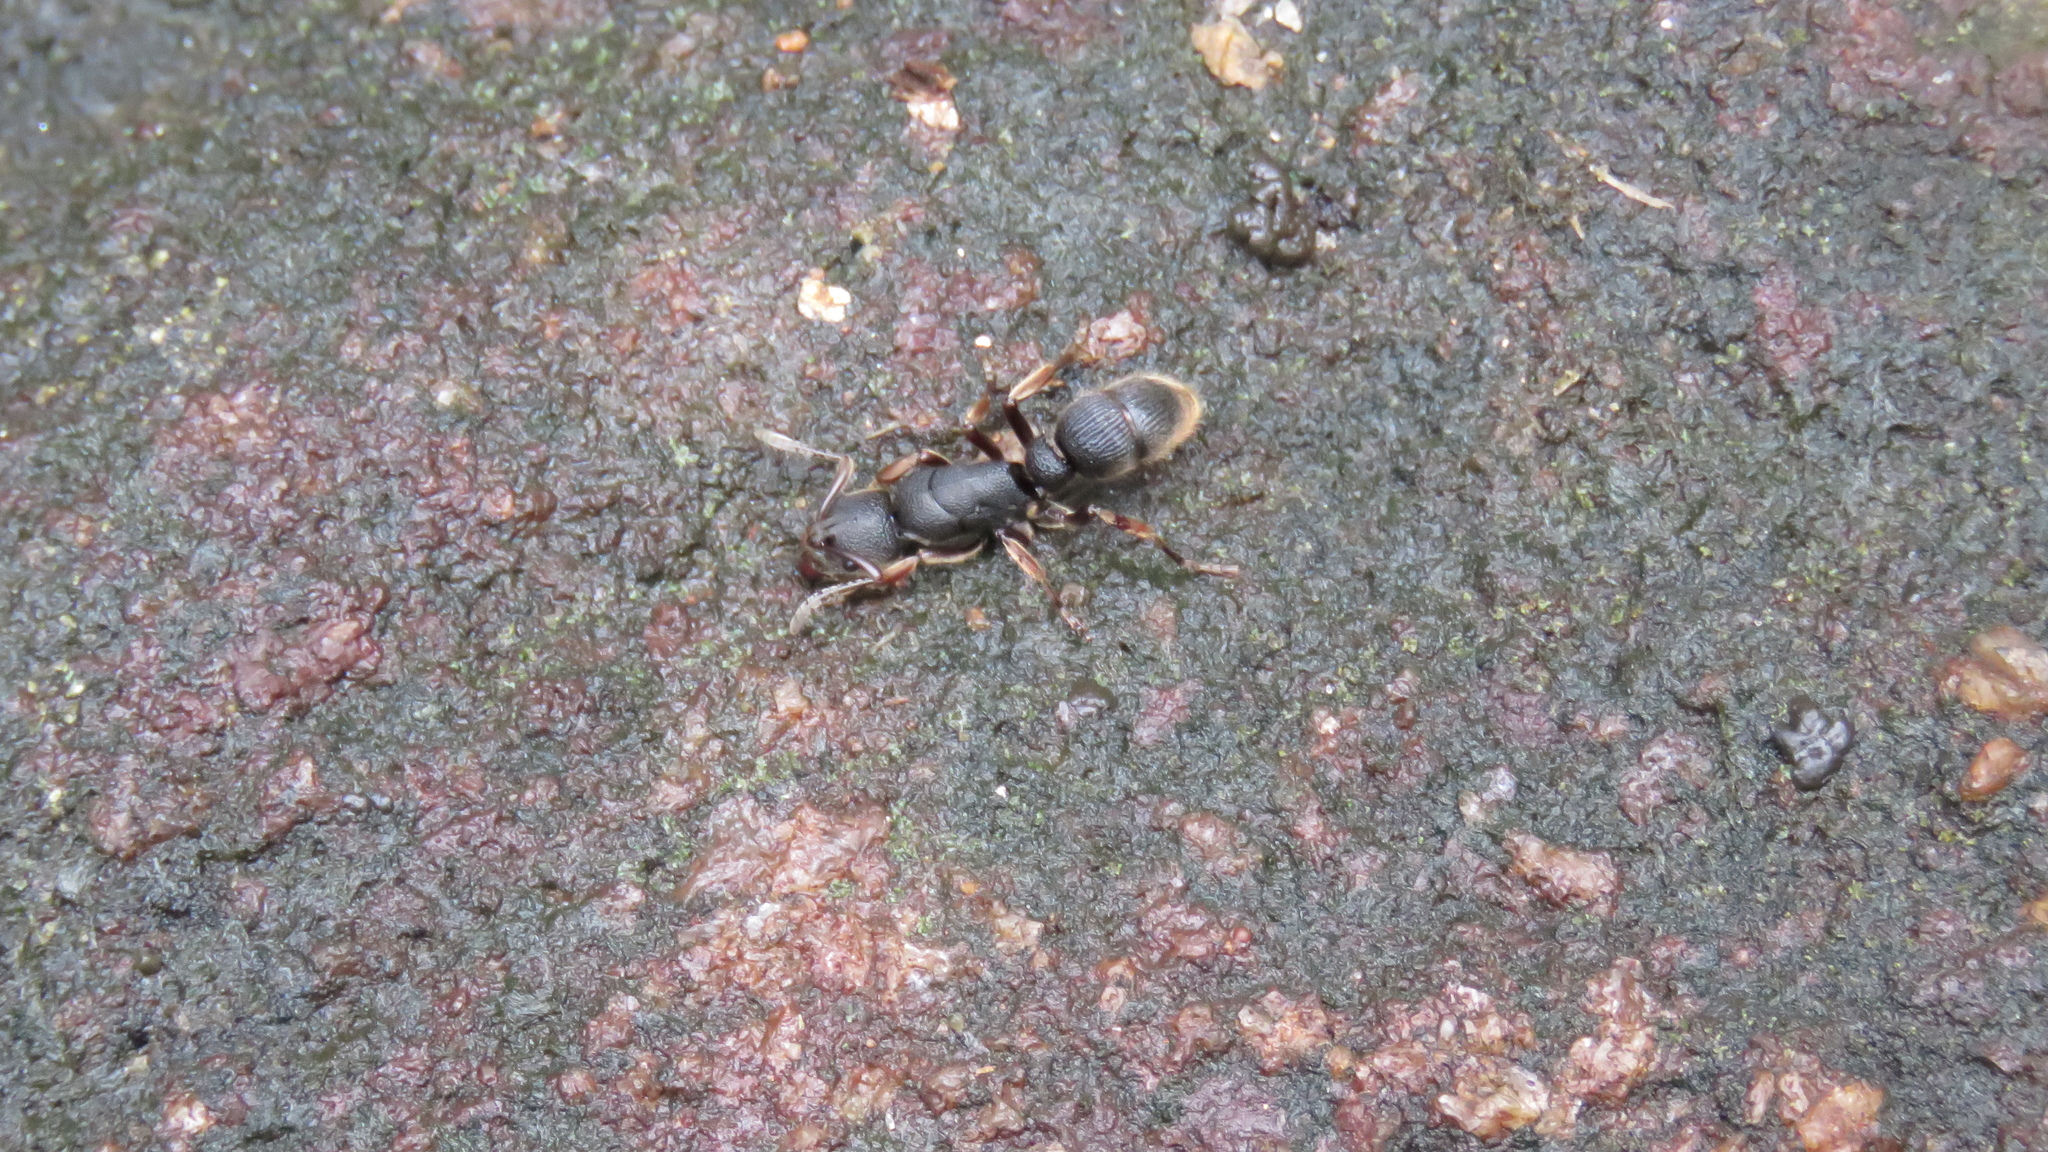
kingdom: Animalia
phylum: Arthropoda
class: Insecta
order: Hymenoptera
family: Formicidae
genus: Pseudoneoponera
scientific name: Pseudoneoponera rufipes
